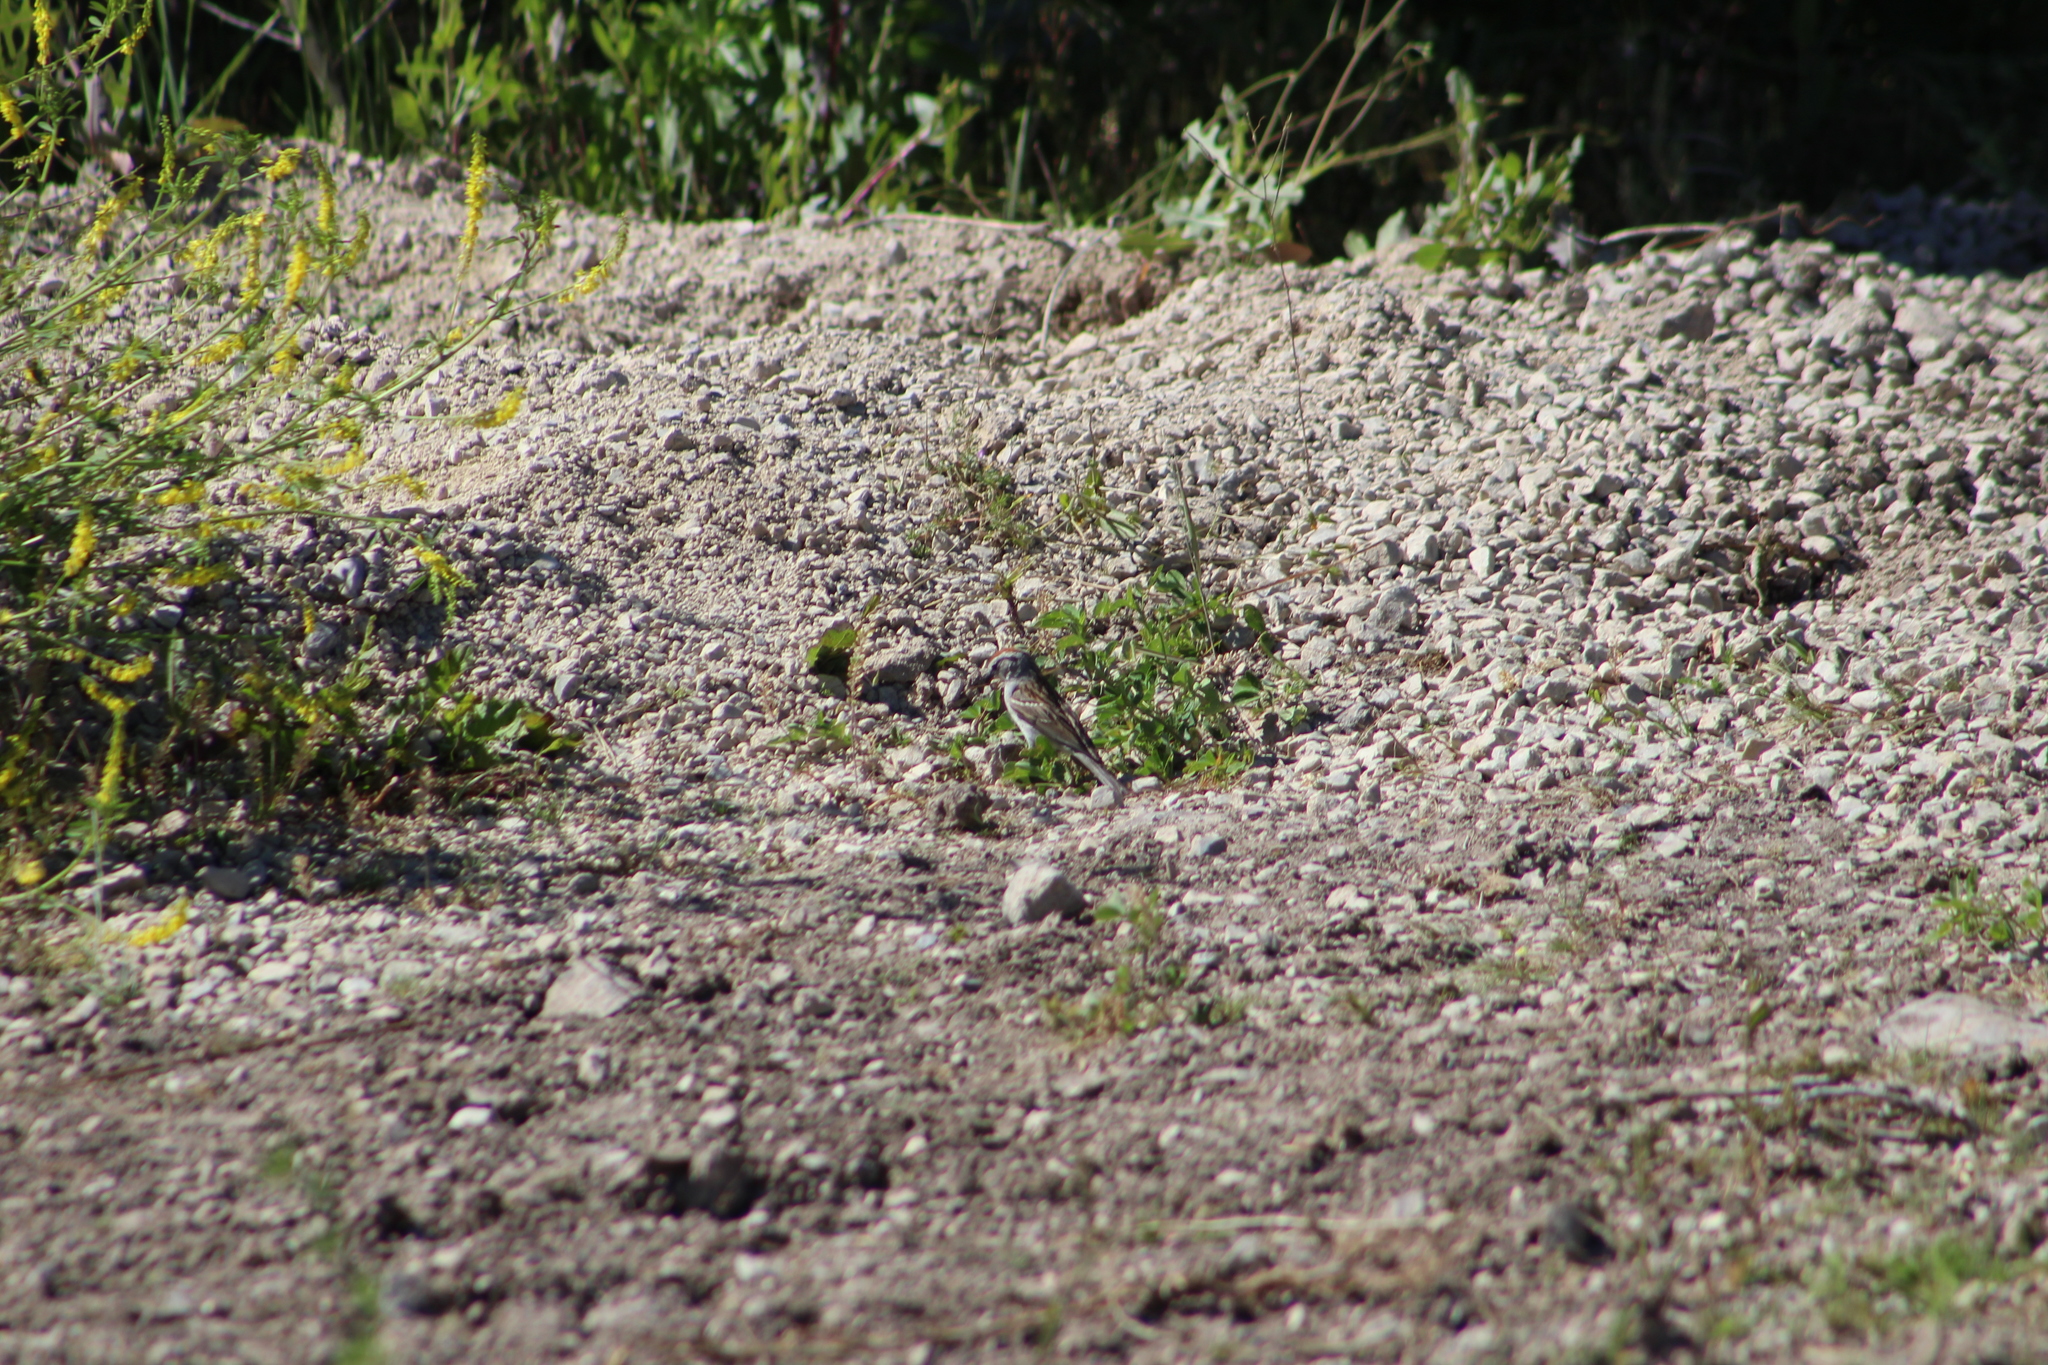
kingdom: Animalia
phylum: Chordata
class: Aves
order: Passeriformes
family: Passerellidae
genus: Spizella
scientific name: Spizella passerina
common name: Chipping sparrow
